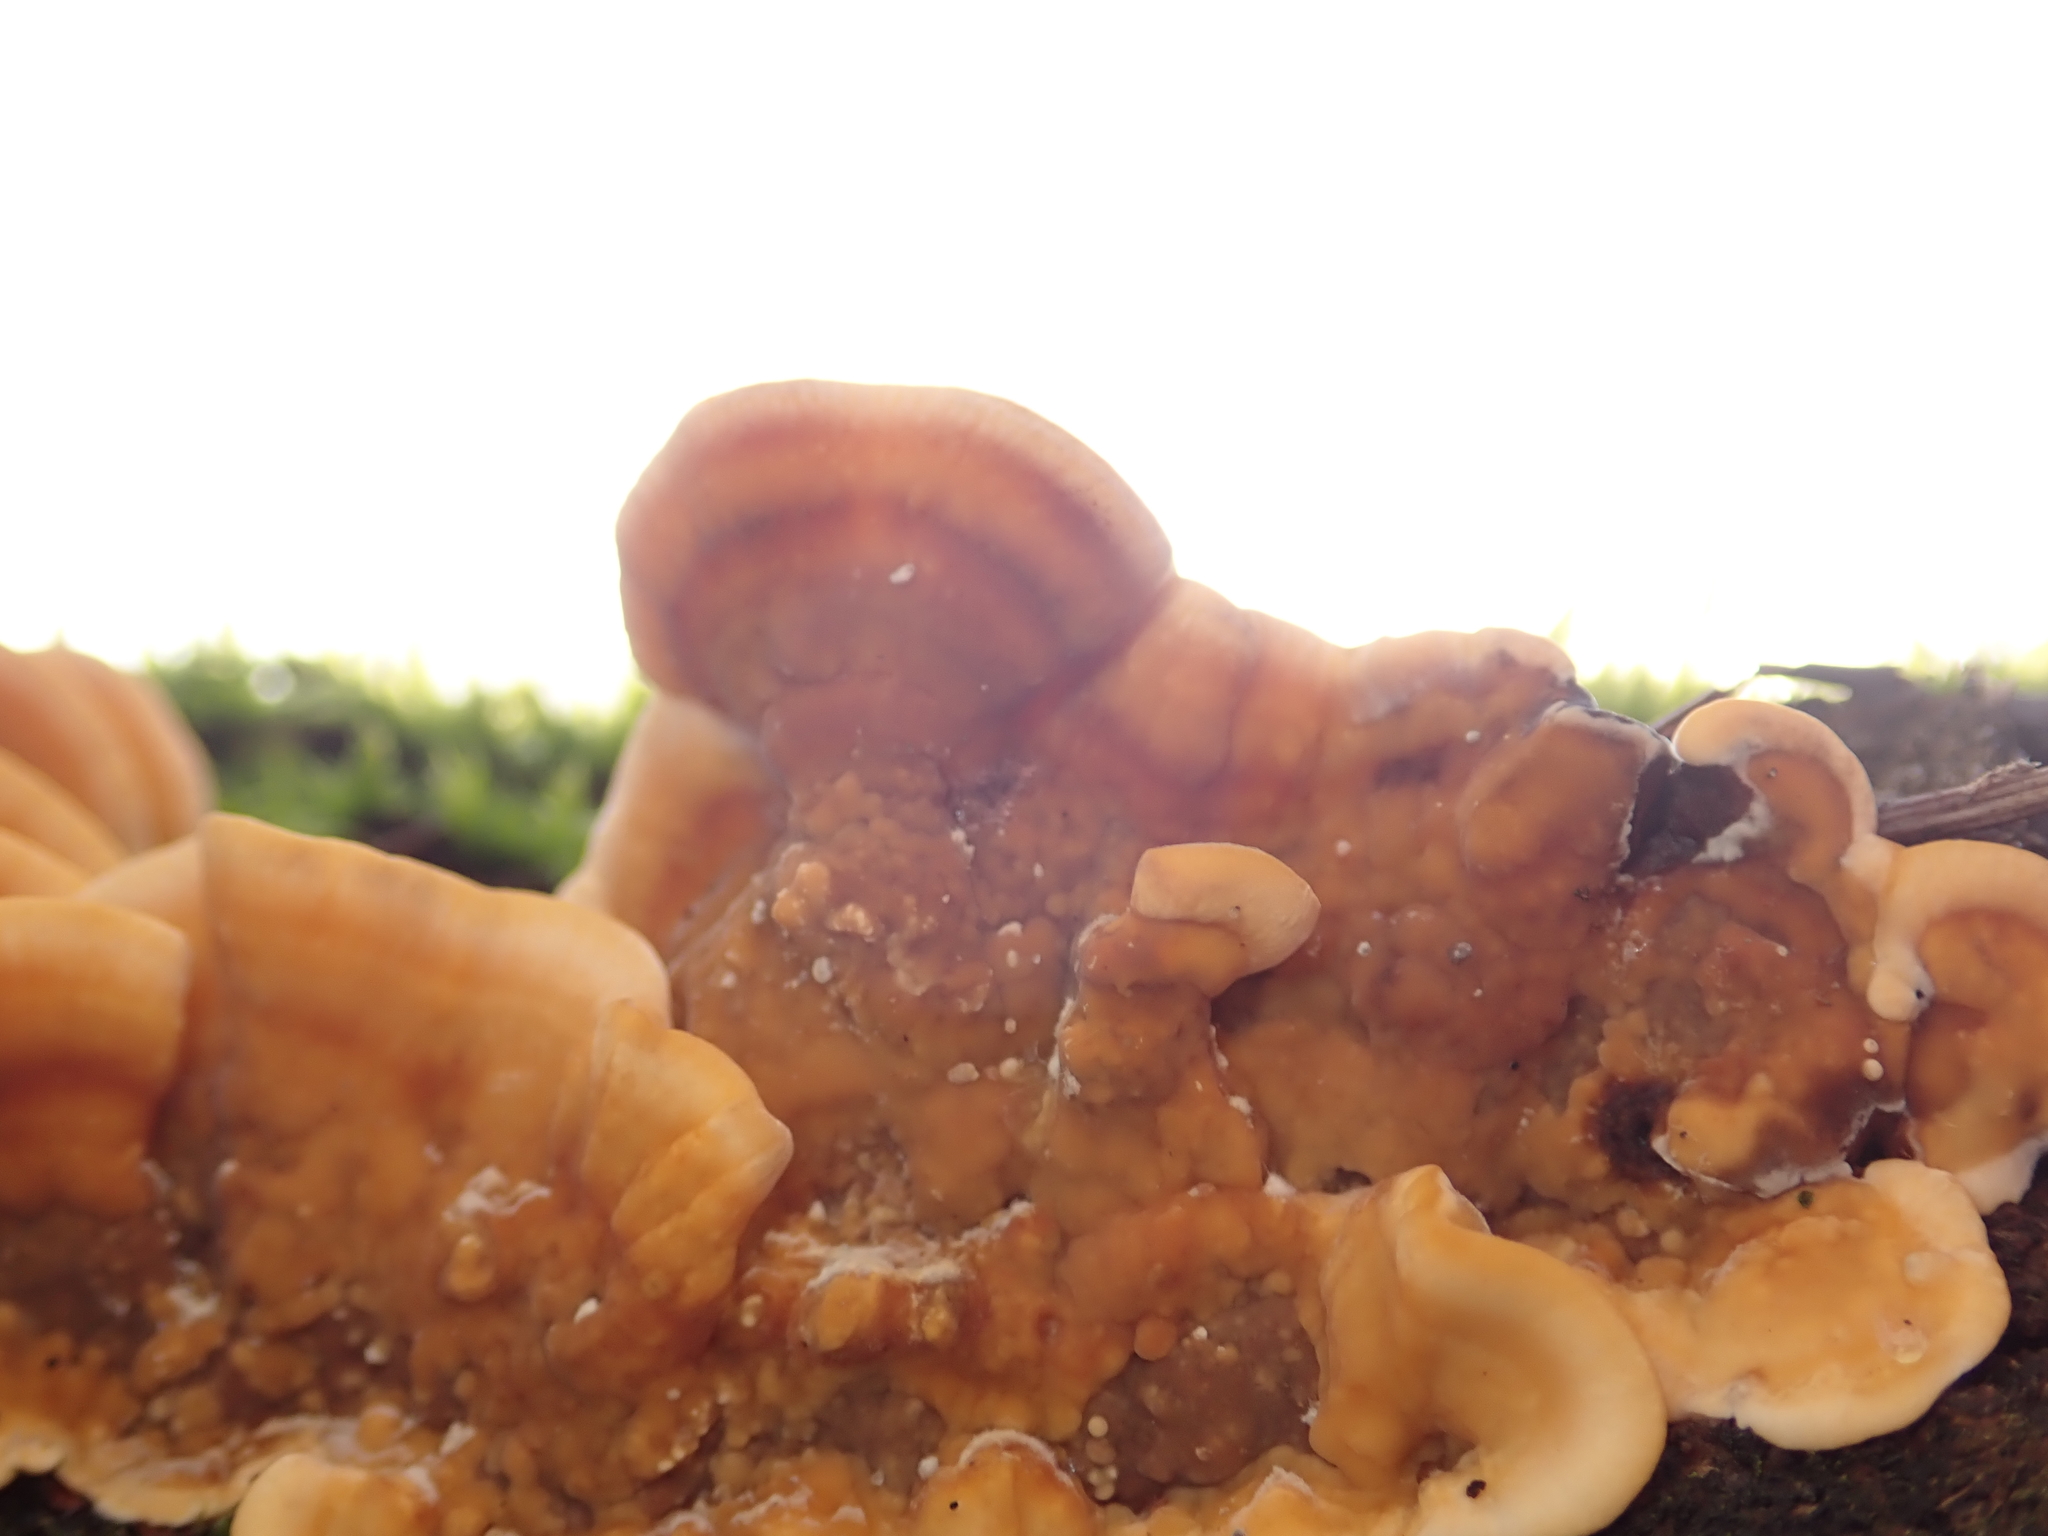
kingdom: Fungi
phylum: Basidiomycota
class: Agaricomycetes
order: Russulales
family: Stereaceae
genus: Stereum
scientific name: Stereum hirsutum
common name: Hairy curtain crust
